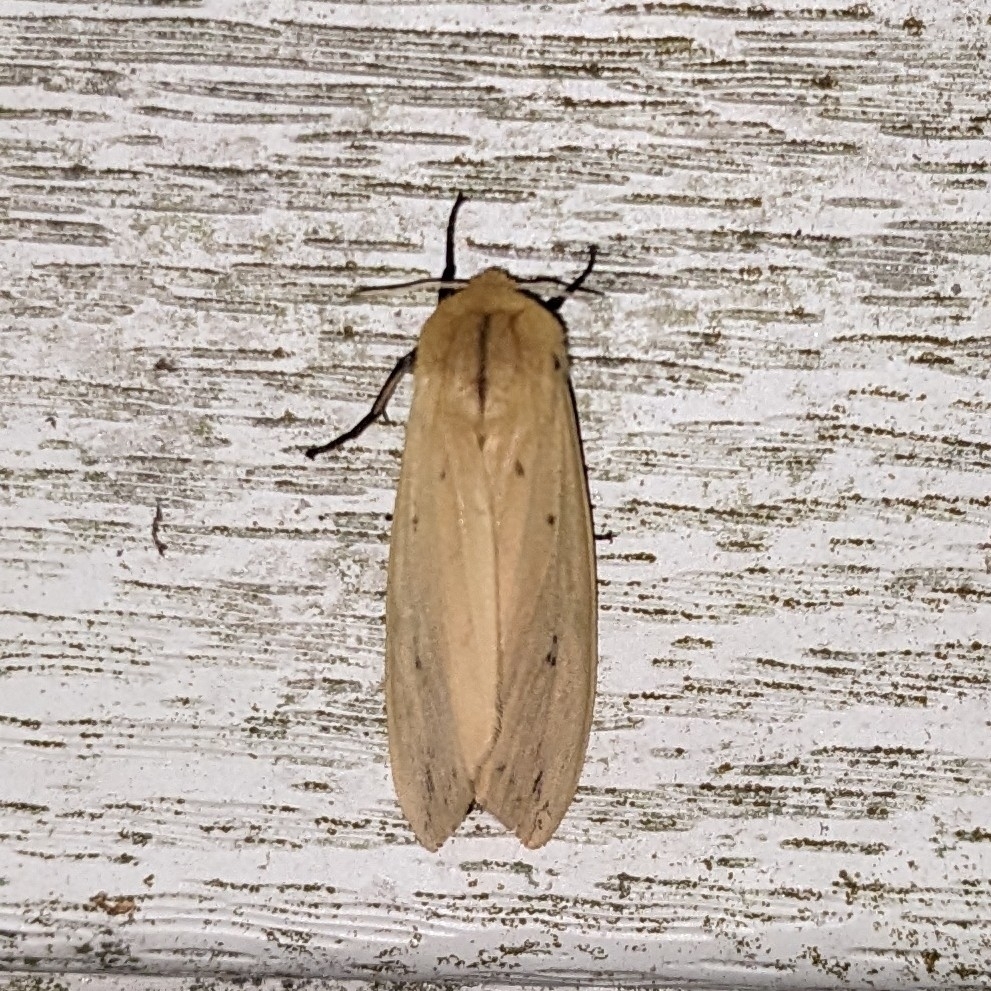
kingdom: Animalia
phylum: Arthropoda
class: Insecta
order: Lepidoptera
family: Erebidae
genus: Pyrrharctia
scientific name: Pyrrharctia isabella
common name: Isabella tiger moth
